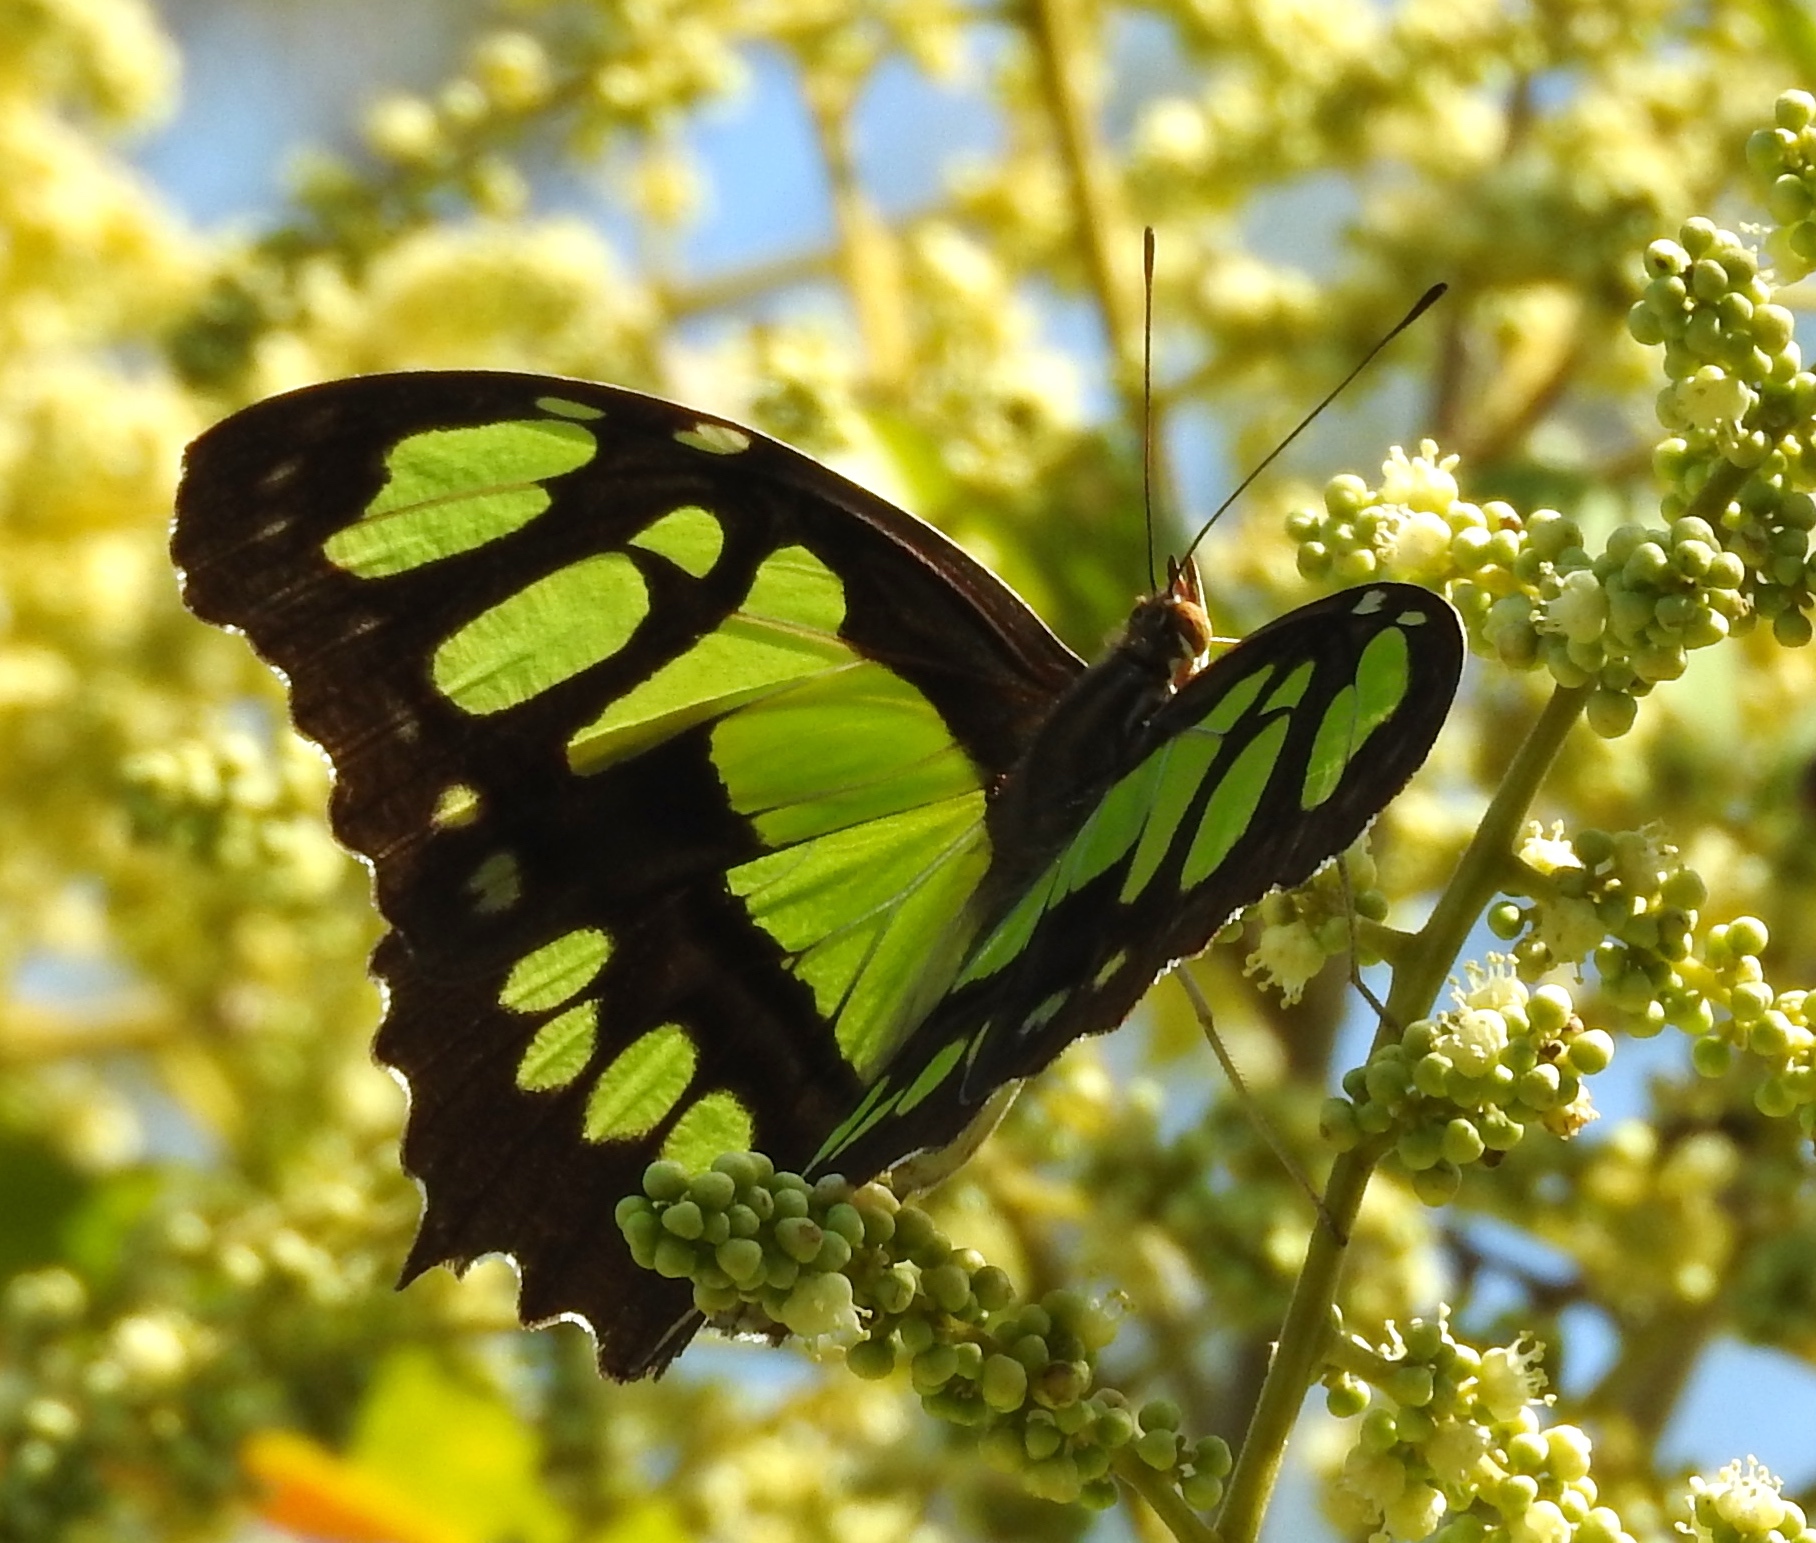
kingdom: Animalia
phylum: Arthropoda
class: Insecta
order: Lepidoptera
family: Nymphalidae
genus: Siproeta
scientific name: Siproeta stelenes
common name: Malachite
